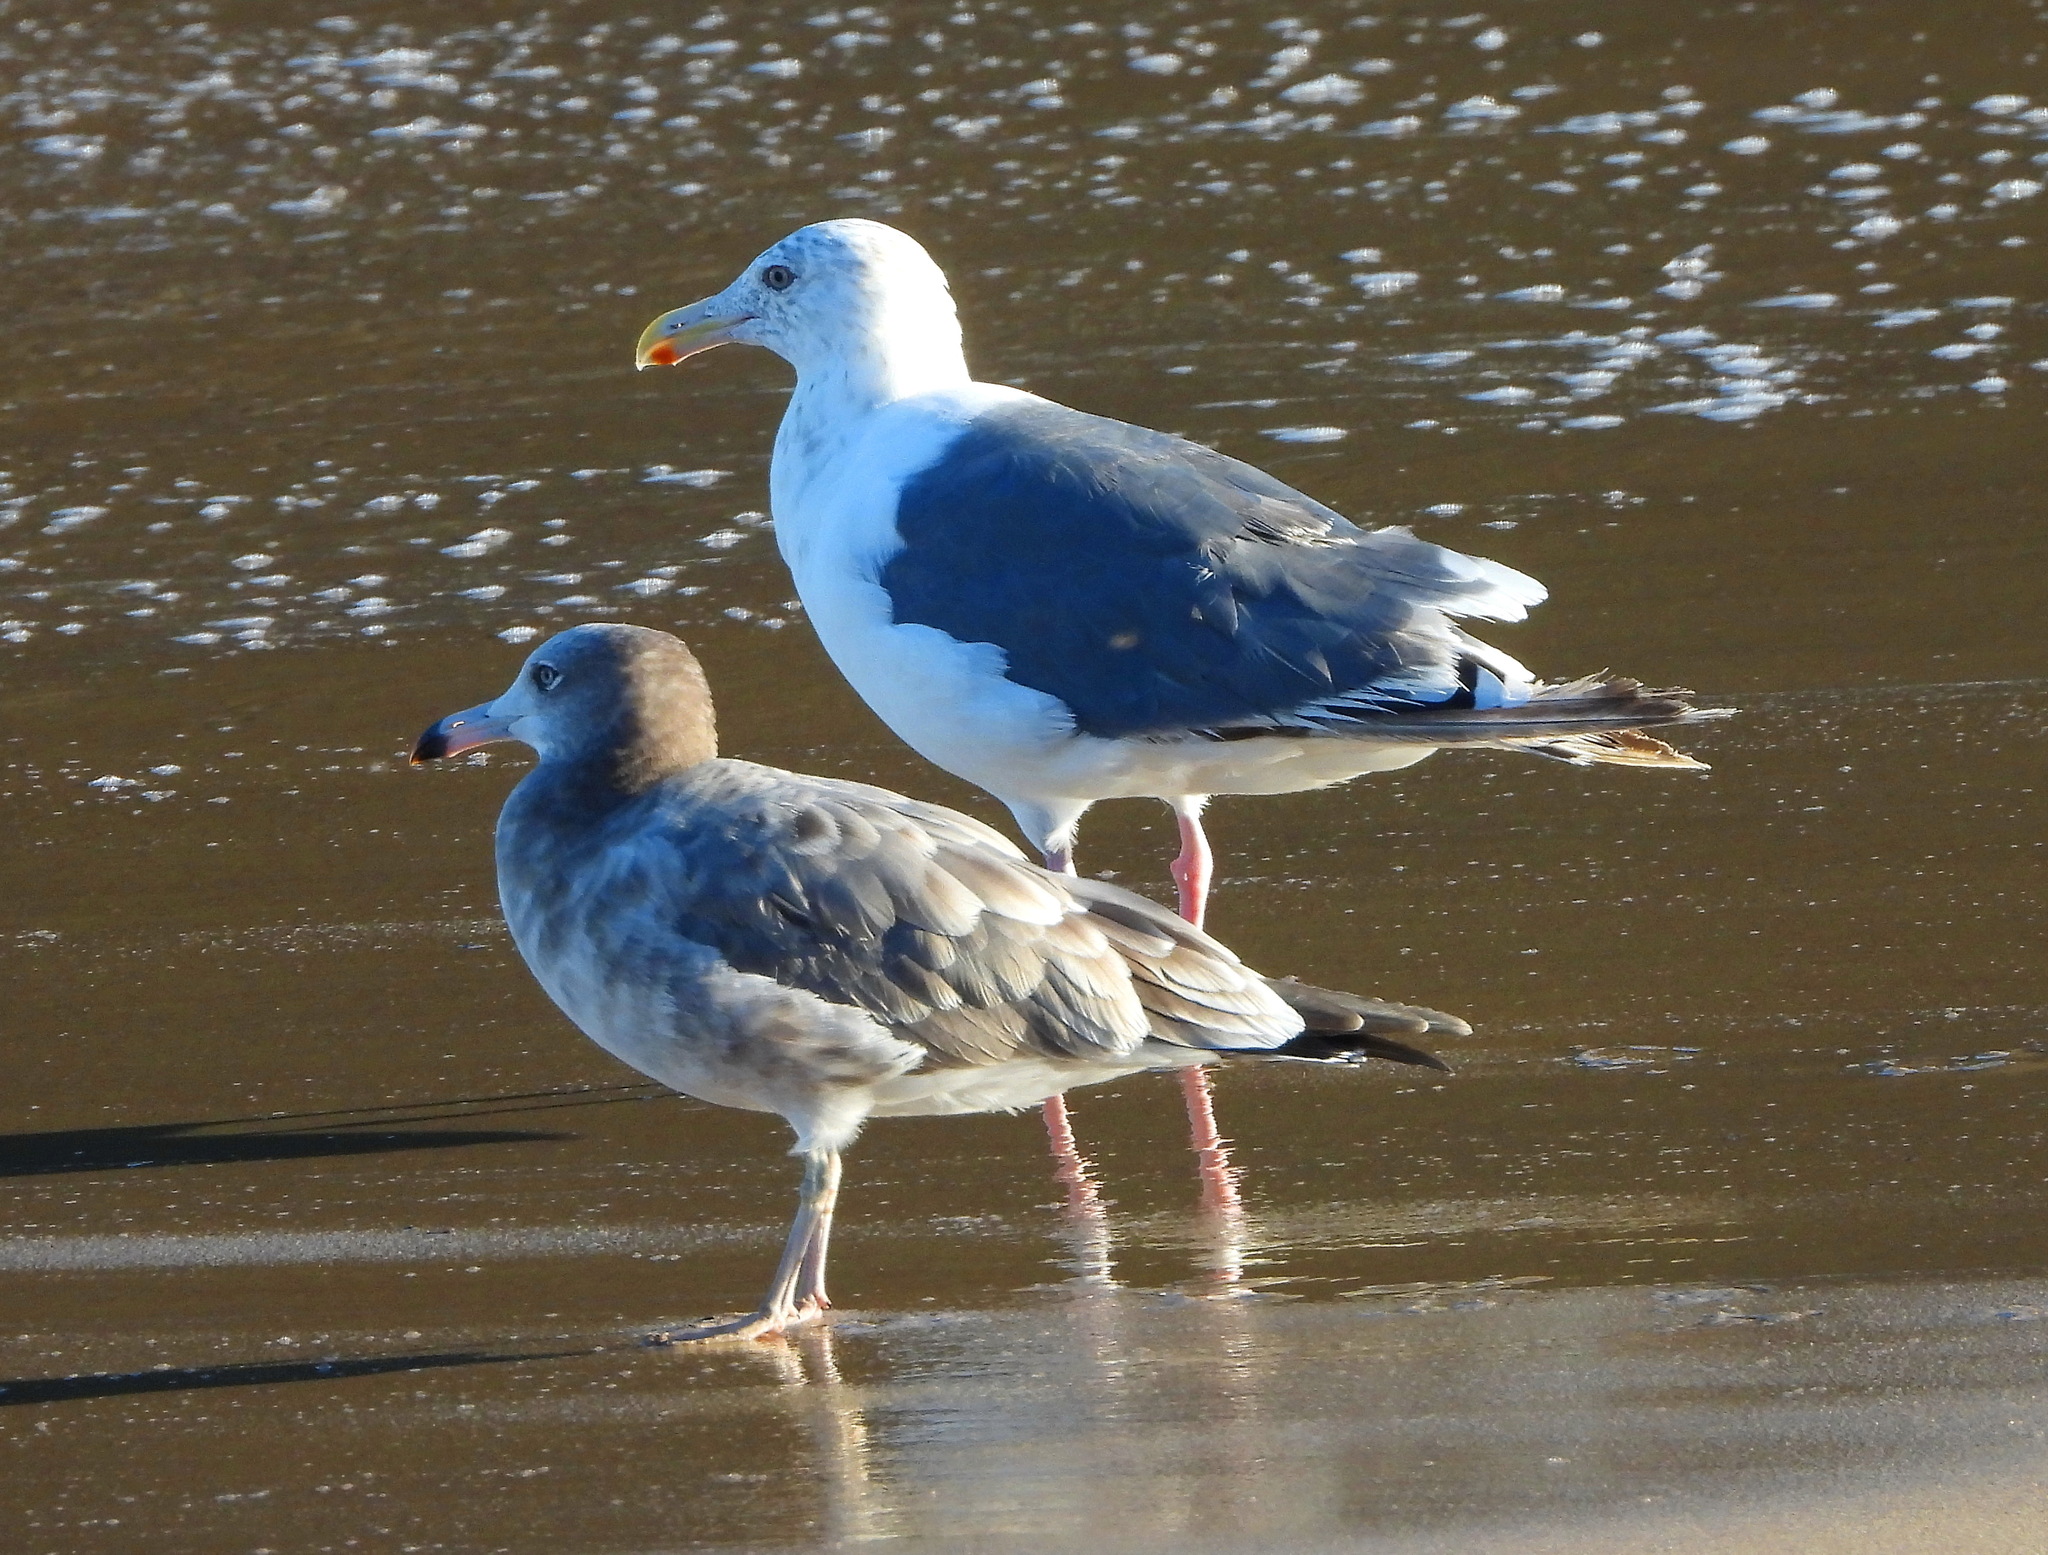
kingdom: Animalia
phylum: Chordata
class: Aves
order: Charadriiformes
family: Laridae
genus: Larus
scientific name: Larus crassirostris
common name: Black-tailed gull
